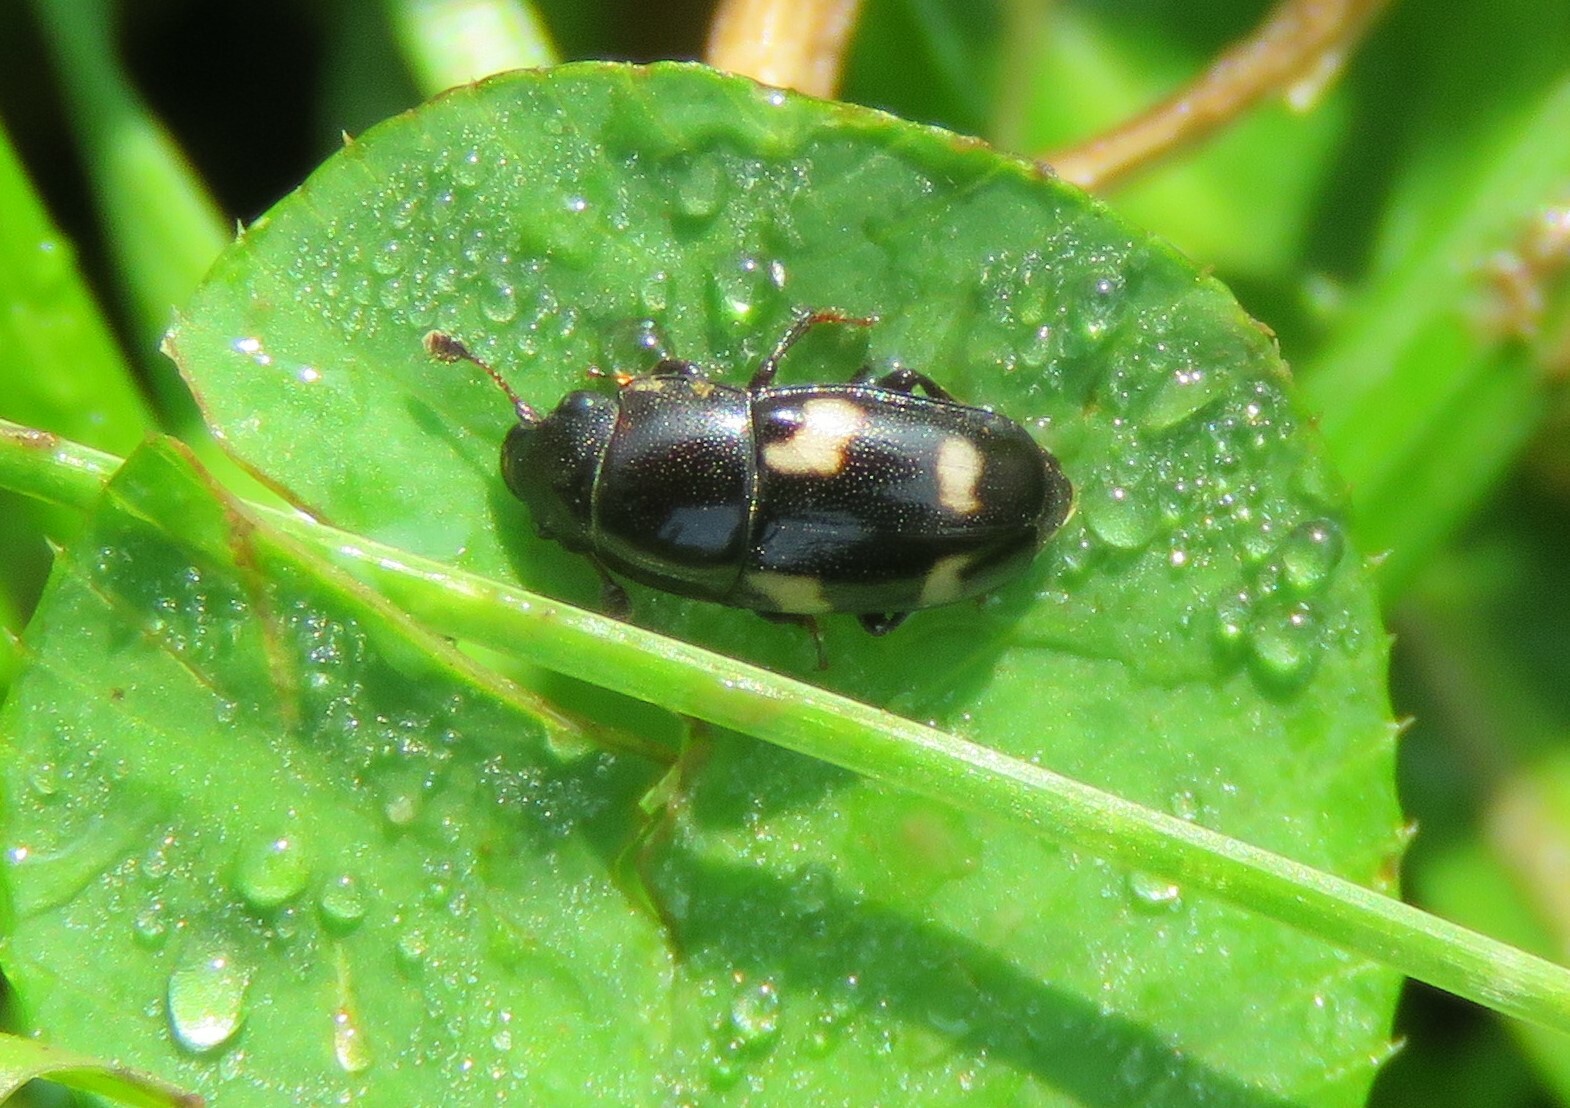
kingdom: Animalia
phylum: Arthropoda
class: Insecta
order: Coleoptera
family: Nitidulidae
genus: Glischrochilus
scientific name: Glischrochilus quadrisignatus
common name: Picnic beetle
